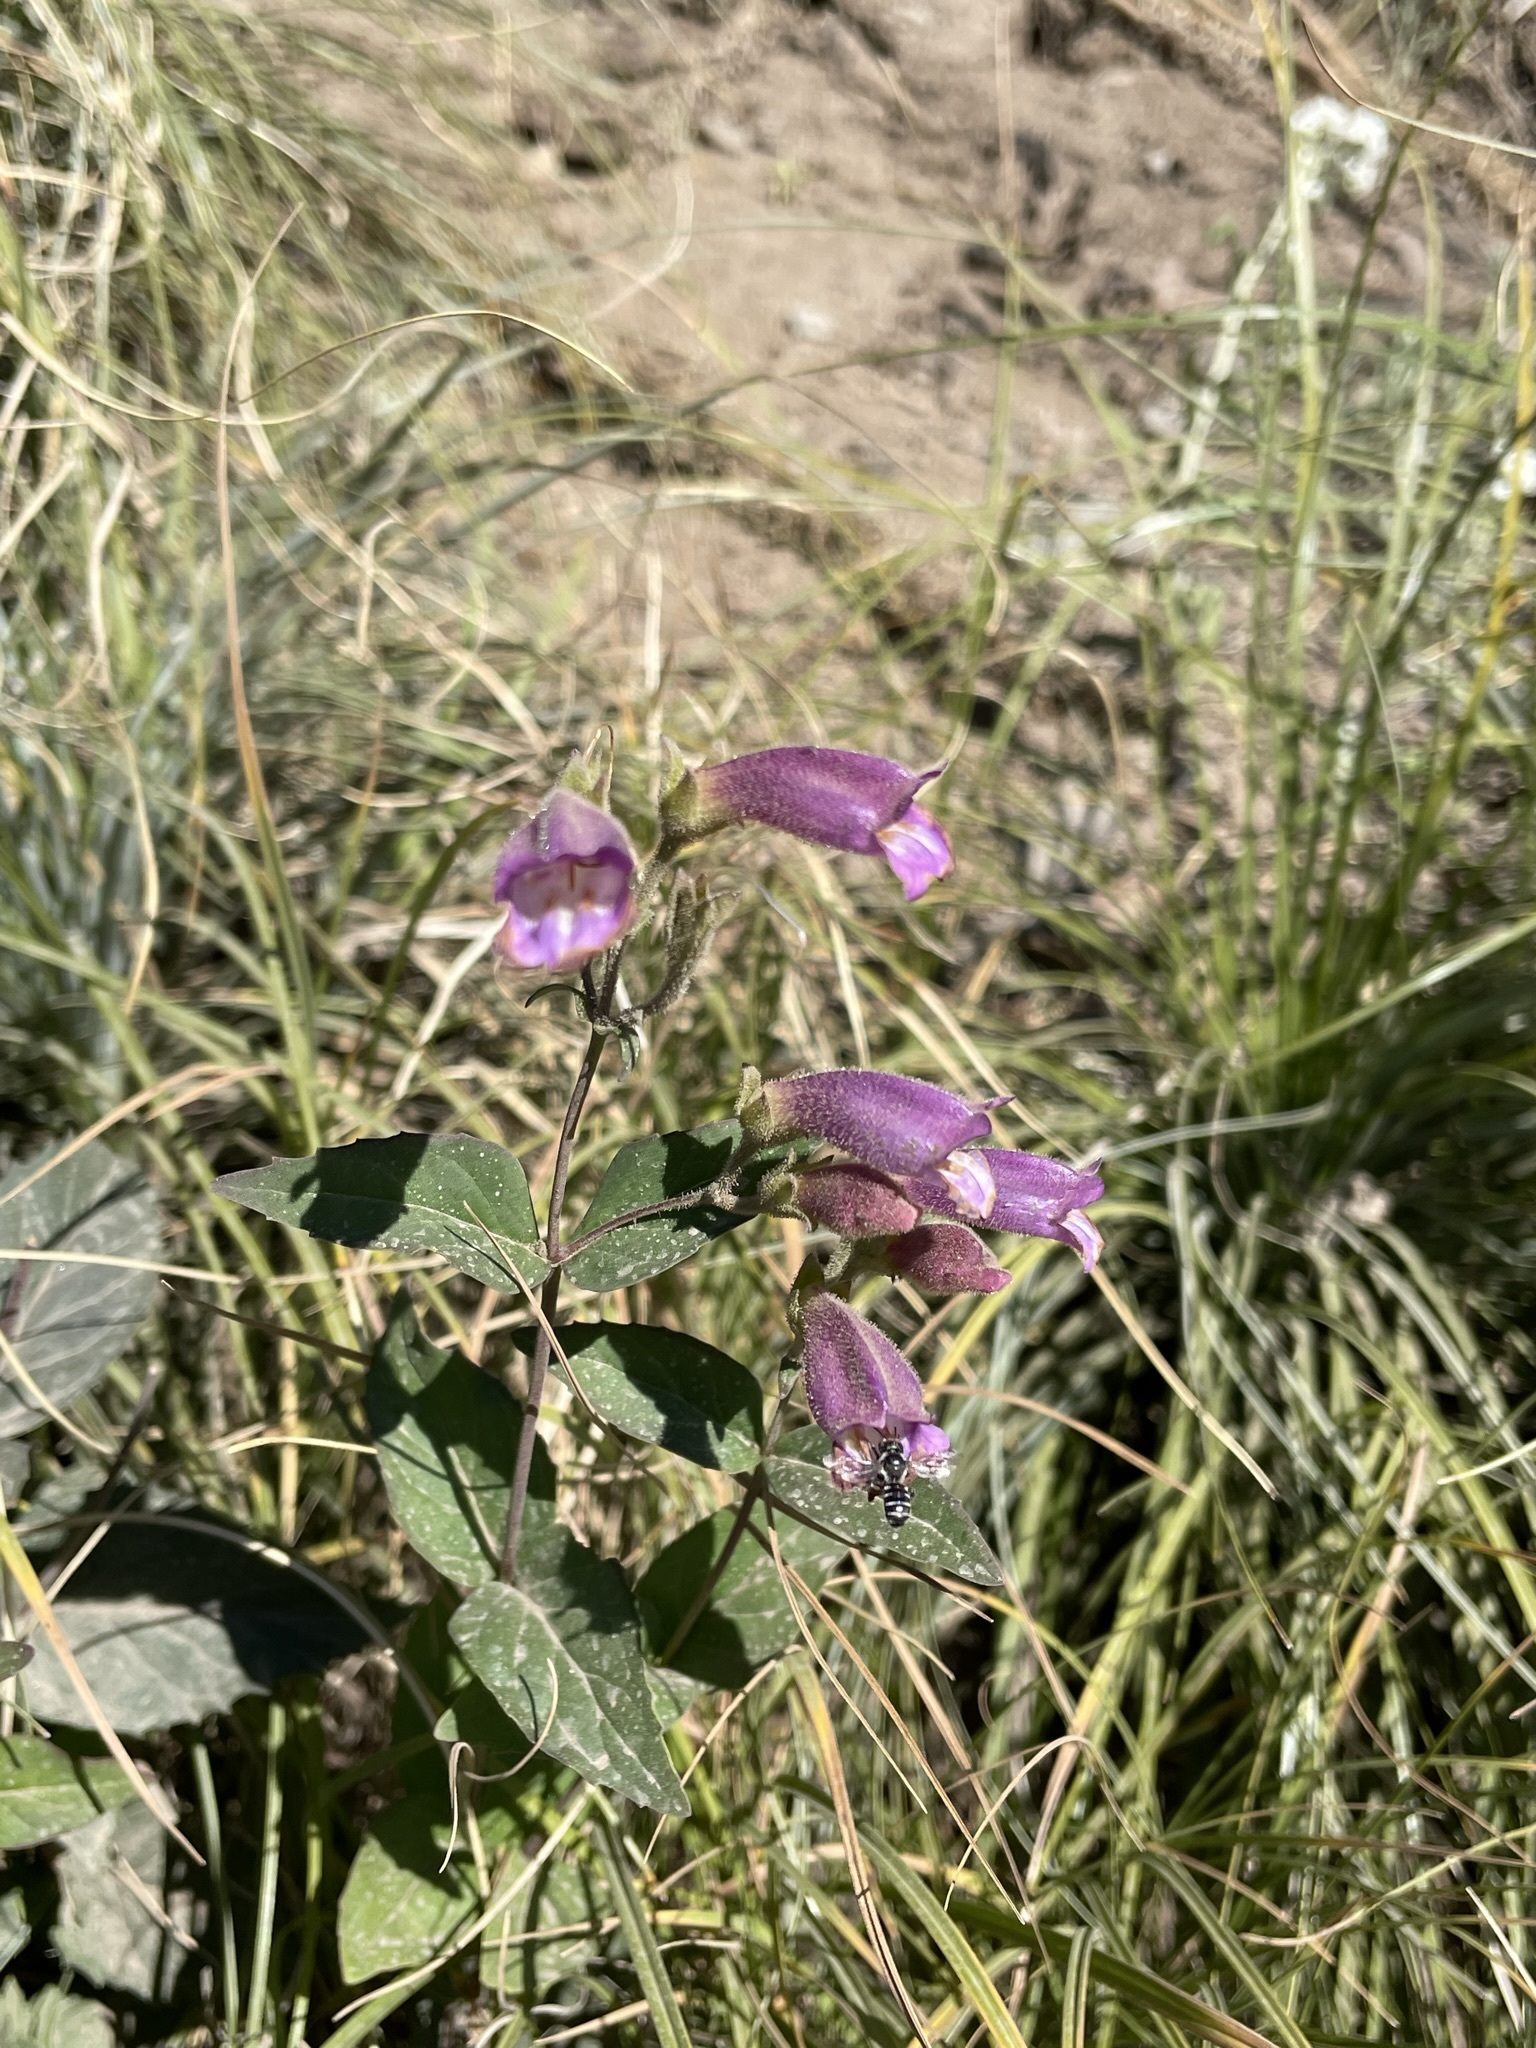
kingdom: Plantae
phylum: Tracheophyta
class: Magnoliopsida
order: Lamiales
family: Plantaginaceae
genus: Nothochelone
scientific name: Nothochelone nemorosa
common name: Woodland beardtongue
